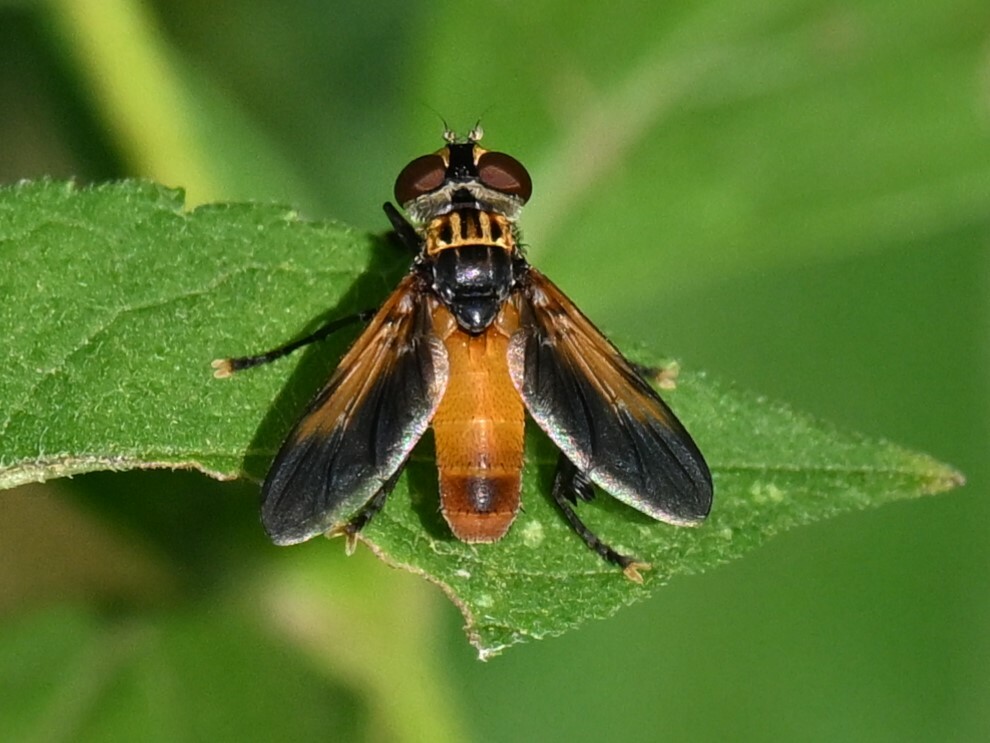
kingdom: Animalia
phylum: Arthropoda
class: Insecta
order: Diptera
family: Tachinidae
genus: Trichopoda
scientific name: Trichopoda pennipes
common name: Tachinid fly
